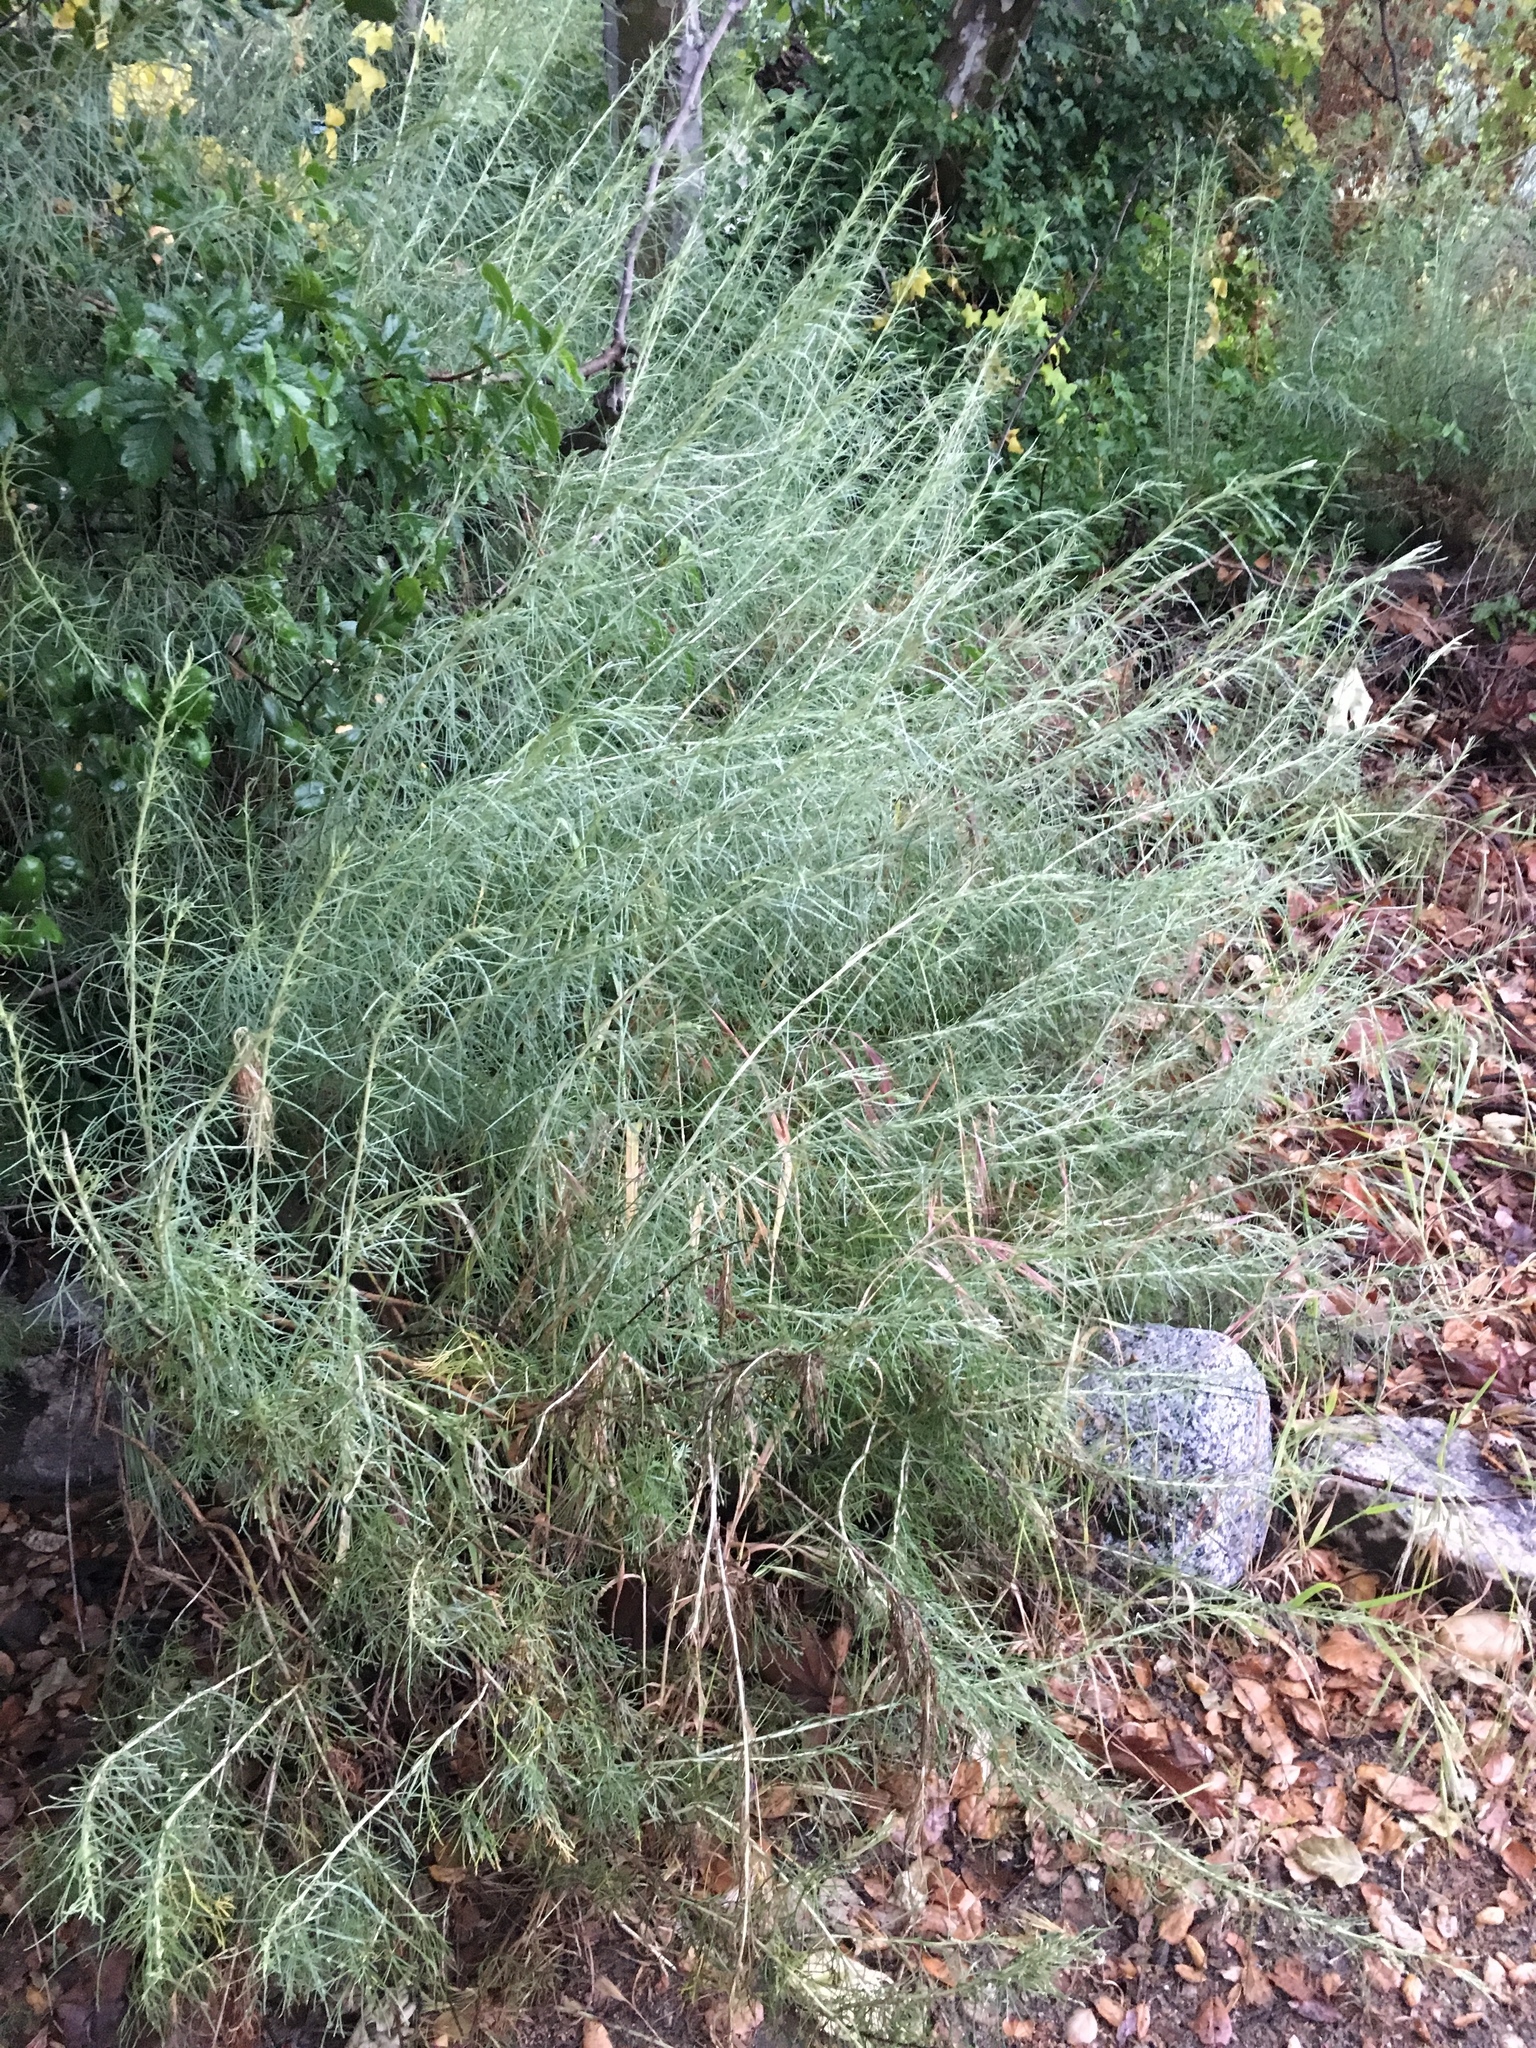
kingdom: Plantae
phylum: Tracheophyta
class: Magnoliopsida
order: Asterales
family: Asteraceae
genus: Artemisia
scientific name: Artemisia californica
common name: California sagebrush
